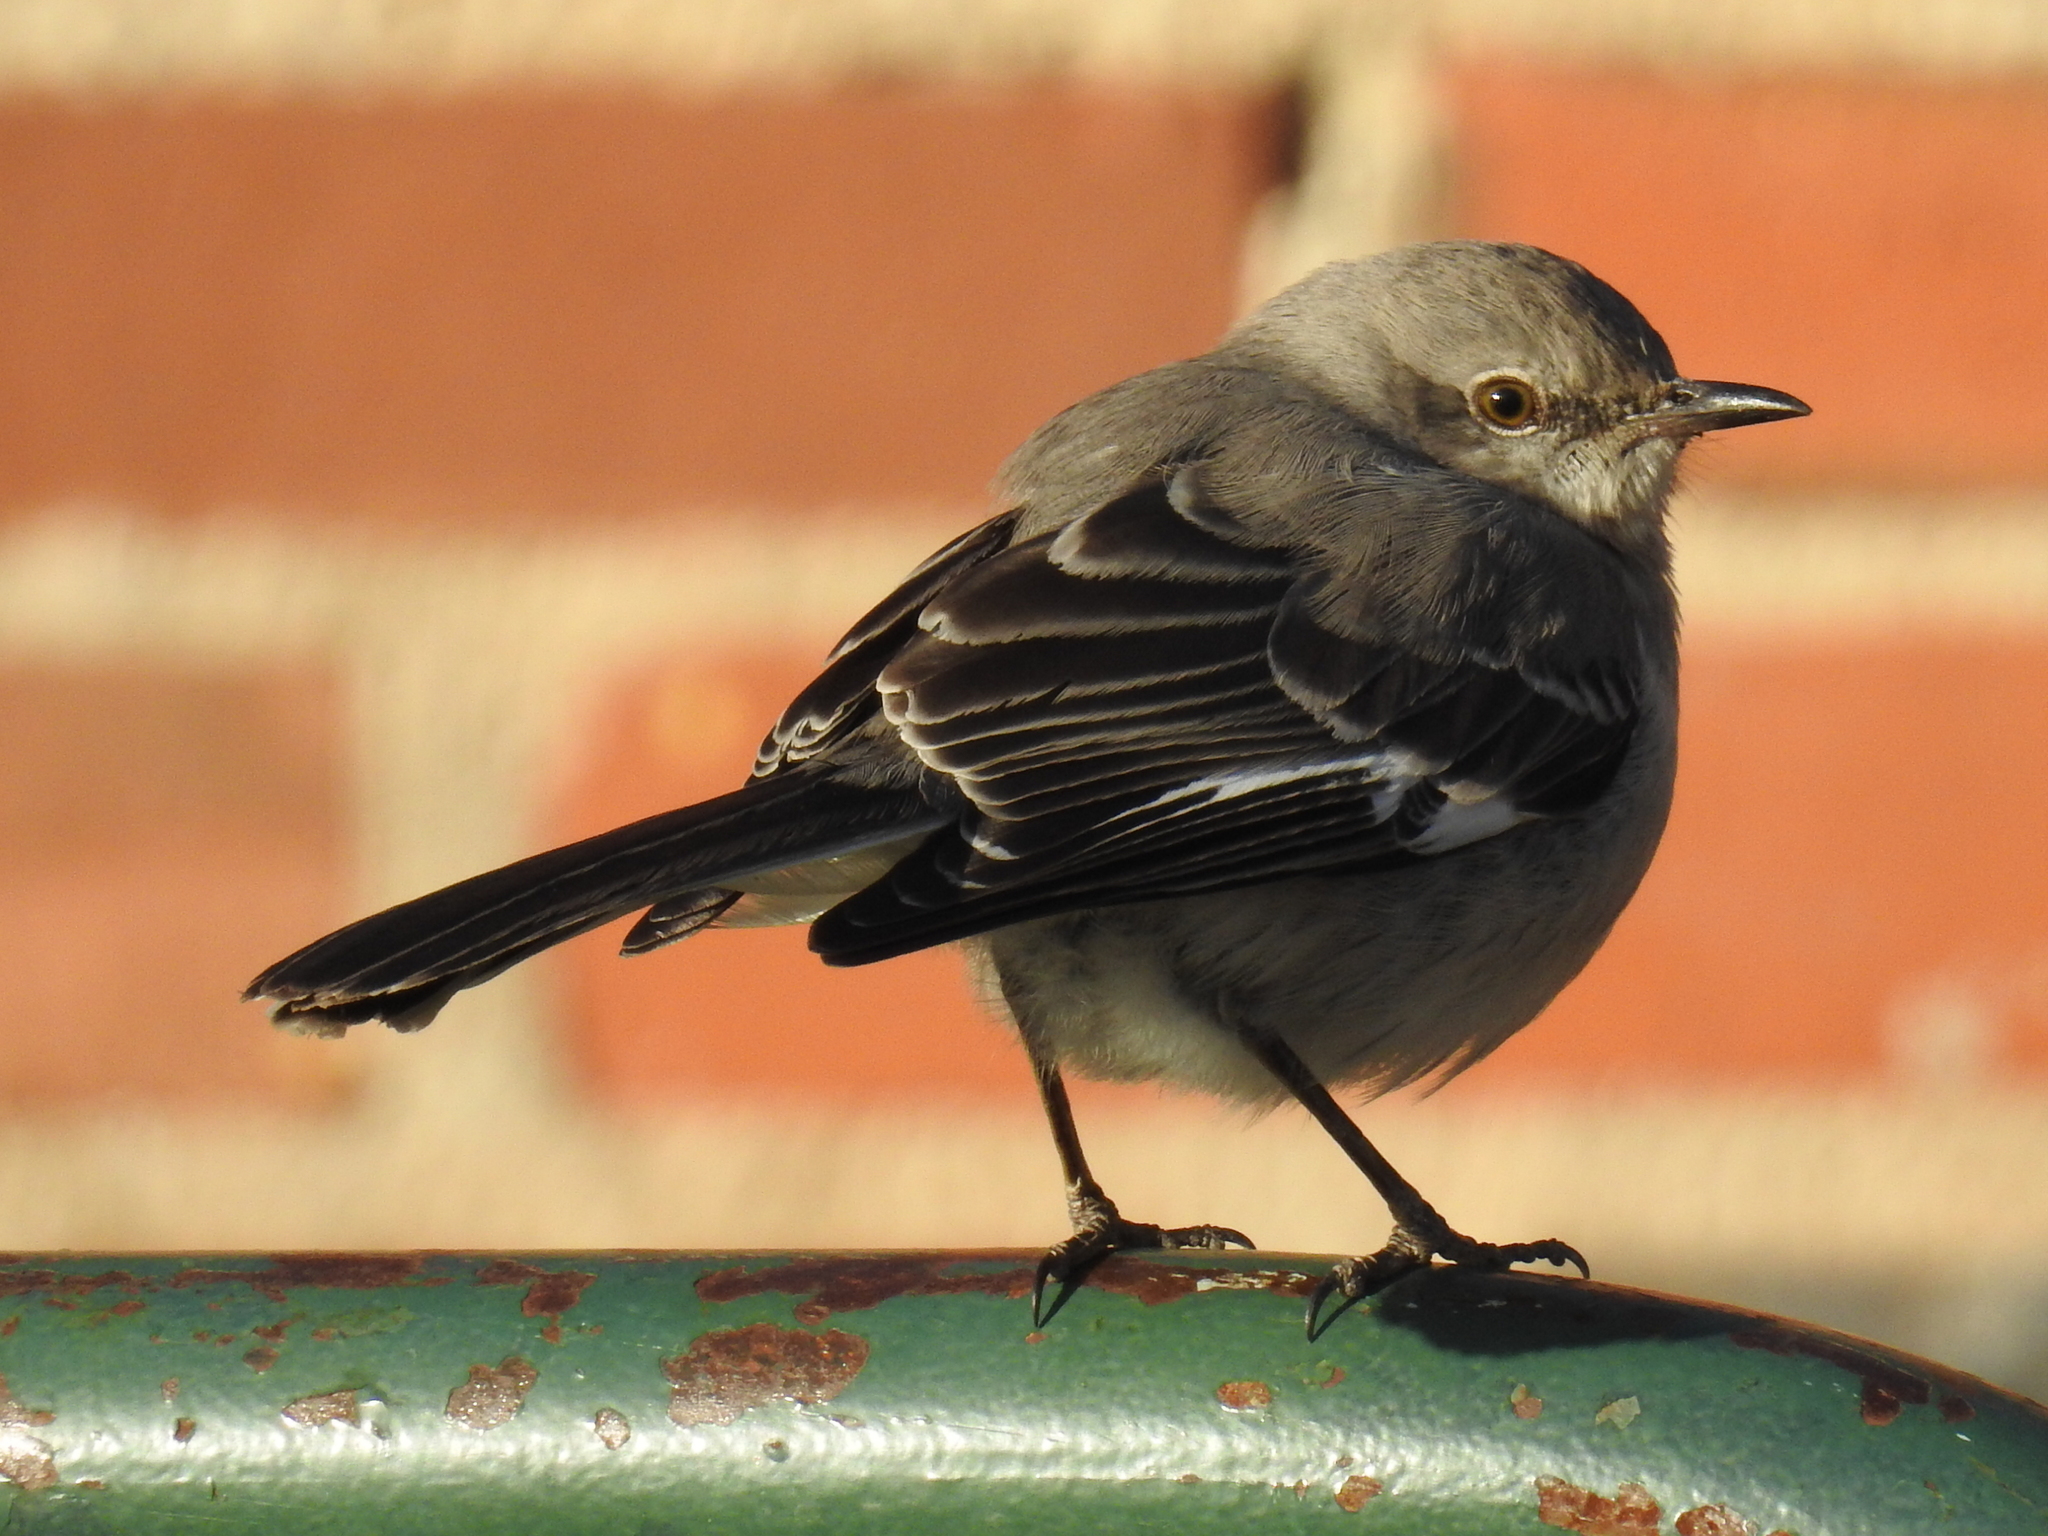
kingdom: Animalia
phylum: Chordata
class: Aves
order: Passeriformes
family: Mimidae
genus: Mimus
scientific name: Mimus polyglottos
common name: Northern mockingbird
